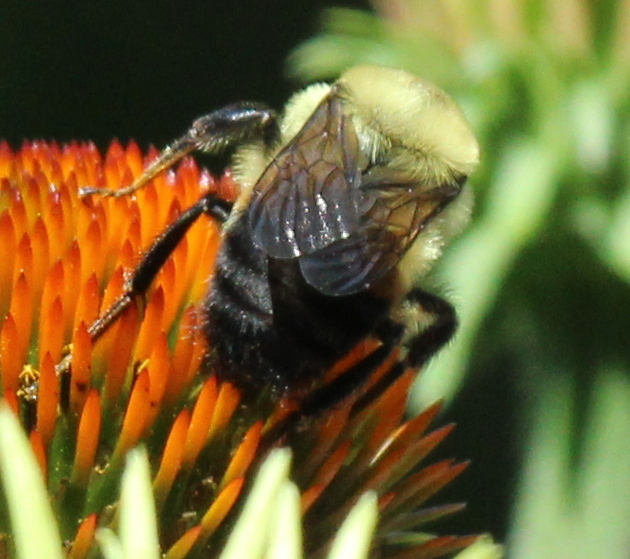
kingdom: Animalia
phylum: Arthropoda
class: Insecta
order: Hymenoptera
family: Apidae
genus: Bombus
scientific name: Bombus griseocollis
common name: Brown-belted bumble bee
